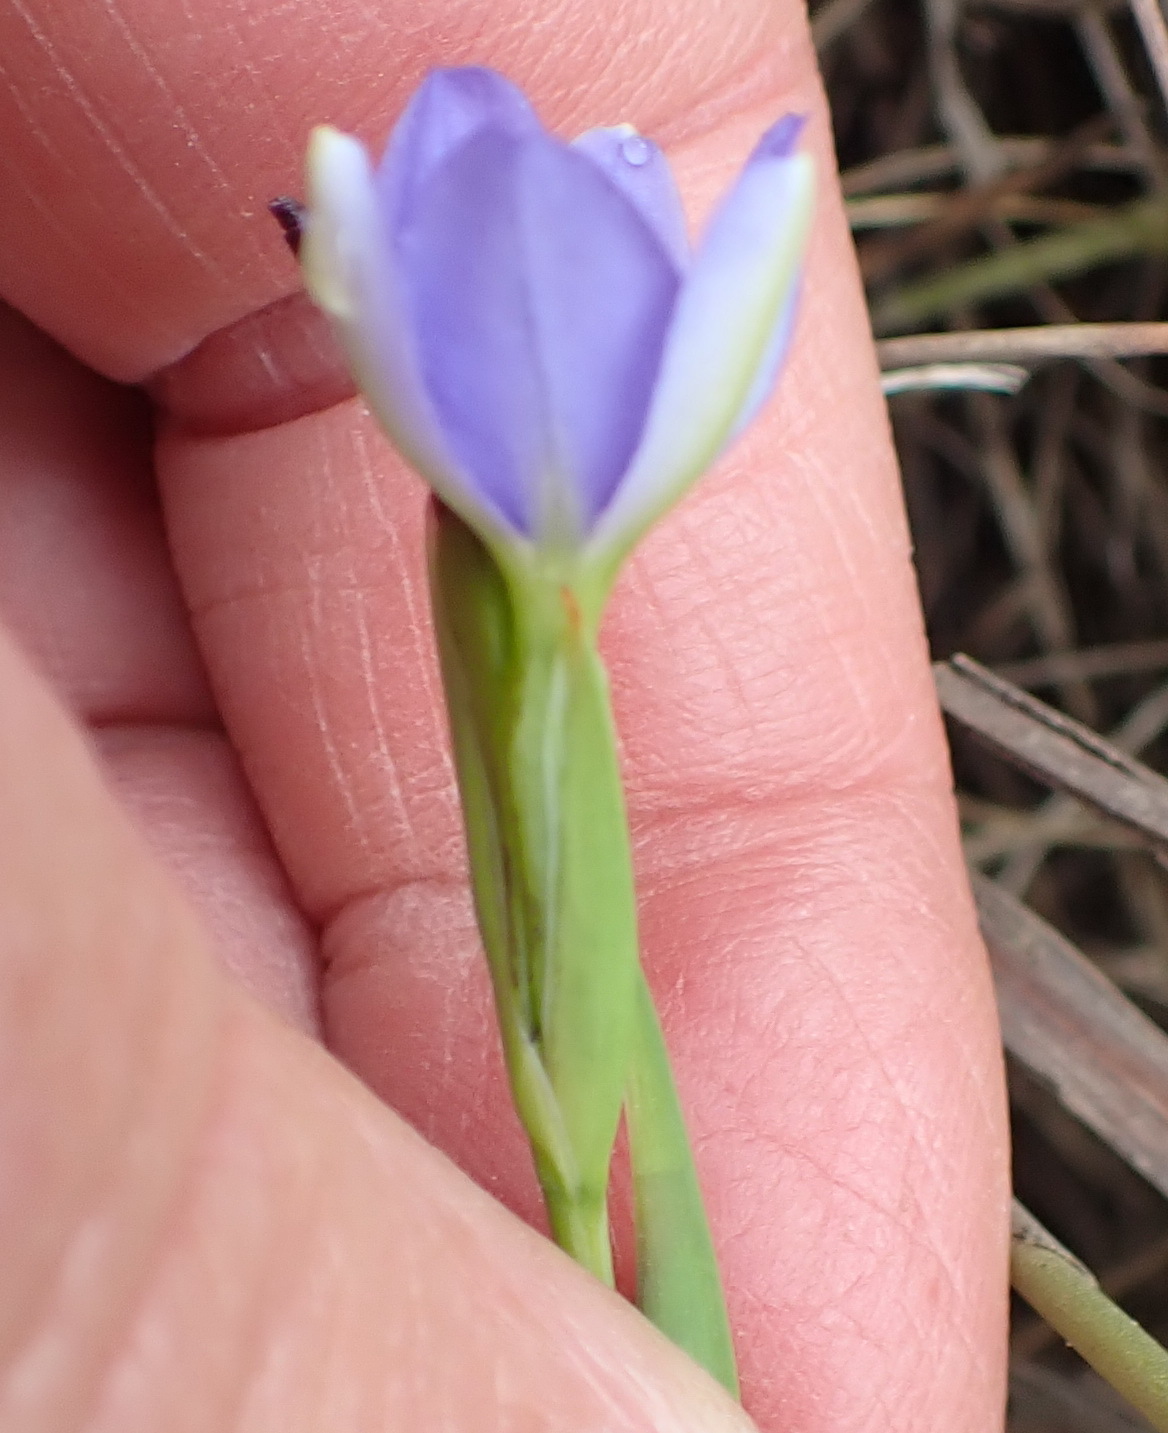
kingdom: Plantae
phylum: Tracheophyta
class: Liliopsida
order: Asparagales
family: Iridaceae
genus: Aristea
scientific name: Aristea pusilla
